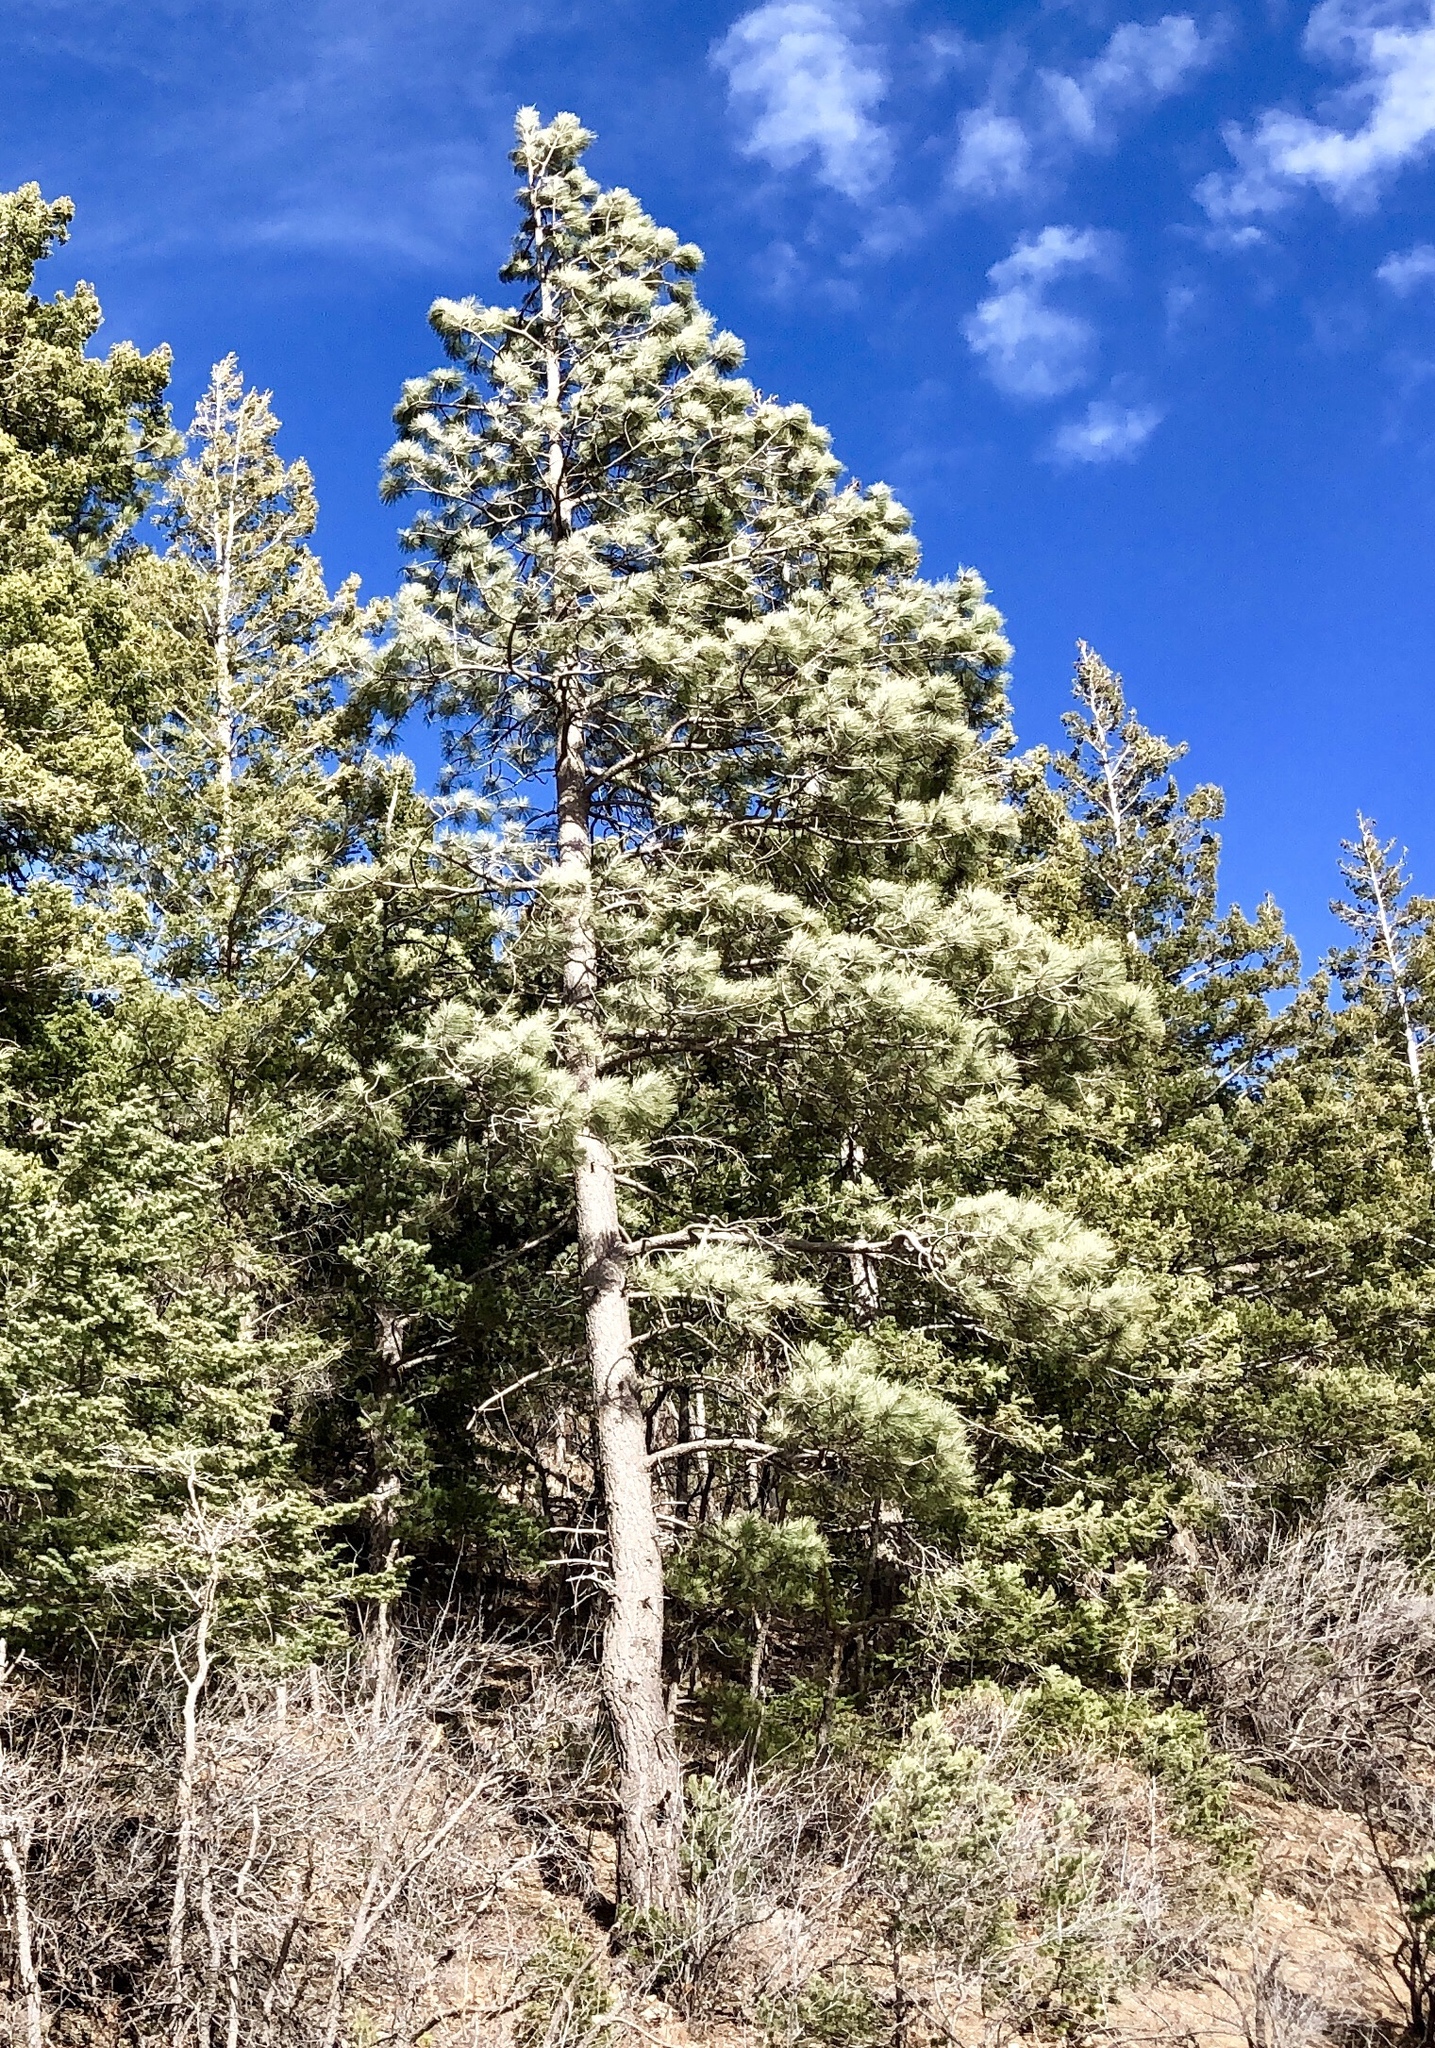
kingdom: Plantae
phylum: Tracheophyta
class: Pinopsida
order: Pinales
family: Pinaceae
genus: Pinus
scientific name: Pinus ponderosa
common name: Western yellow-pine
